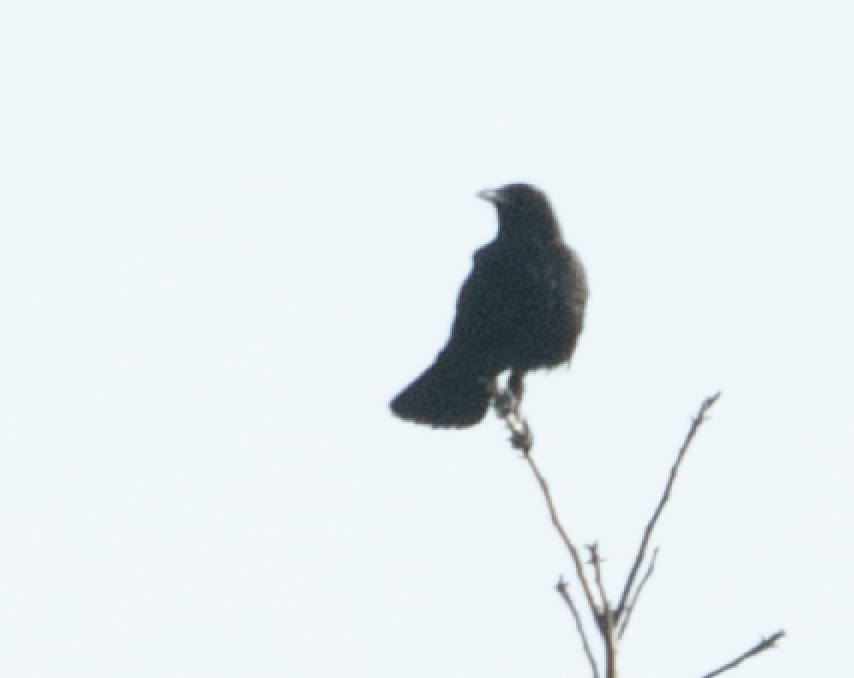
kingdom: Animalia
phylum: Chordata
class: Aves
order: Passeriformes
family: Corvidae
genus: Corvus
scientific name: Corvus corone
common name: Carrion crow
